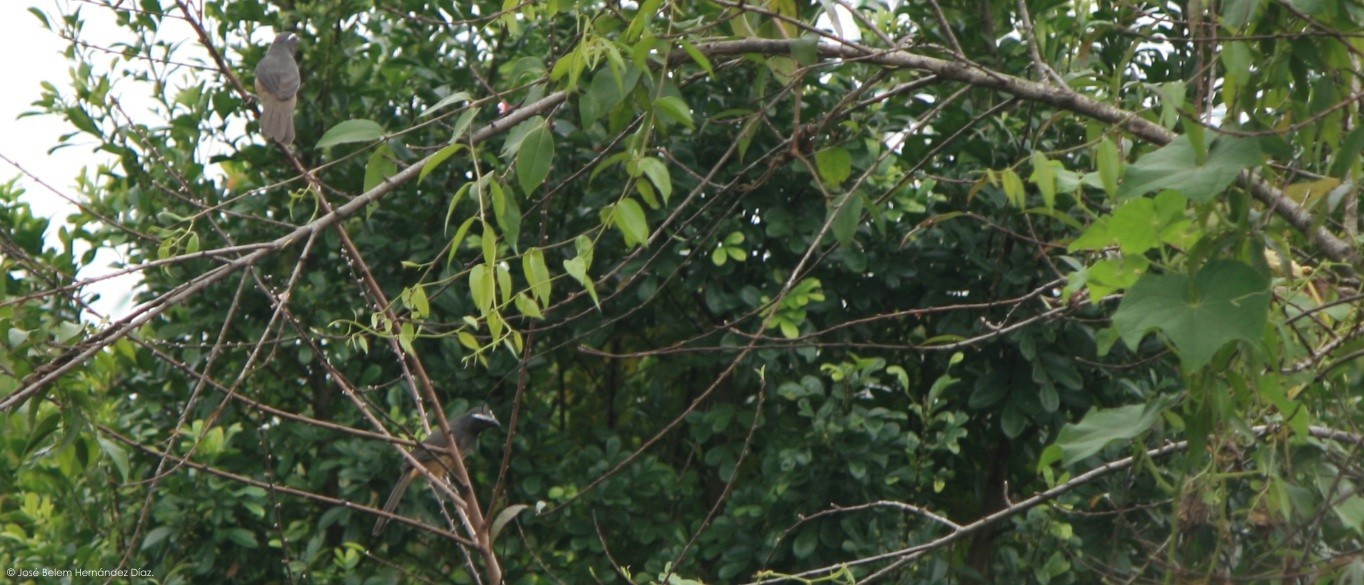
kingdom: Animalia
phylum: Chordata
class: Aves
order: Passeriformes
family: Thraupidae
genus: Saltator
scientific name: Saltator atriceps
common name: Black-headed saltator
